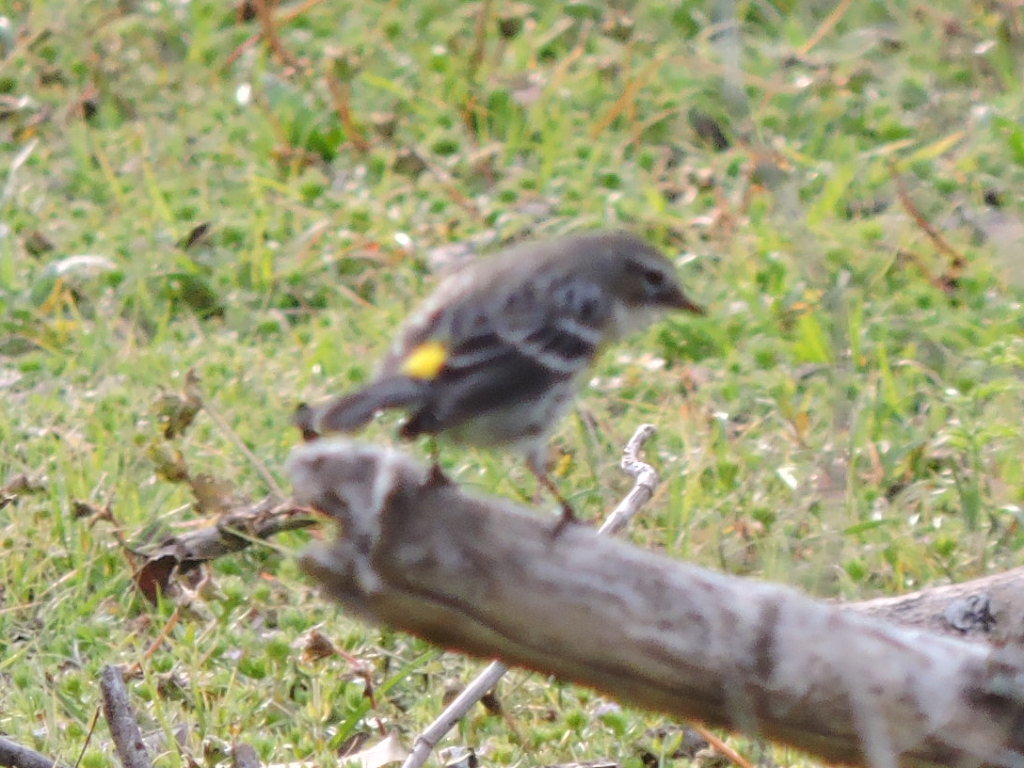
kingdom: Animalia
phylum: Chordata
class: Aves
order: Passeriformes
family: Parulidae
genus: Setophaga
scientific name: Setophaga coronata
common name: Myrtle warbler
